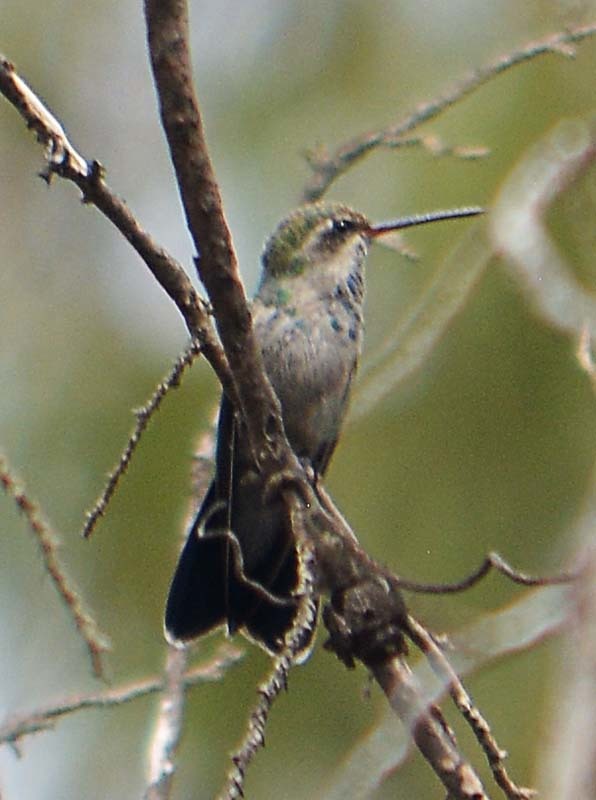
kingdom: Animalia
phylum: Chordata
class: Aves
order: Apodiformes
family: Trochilidae
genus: Cynanthus
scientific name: Cynanthus latirostris
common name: Broad-billed hummingbird
